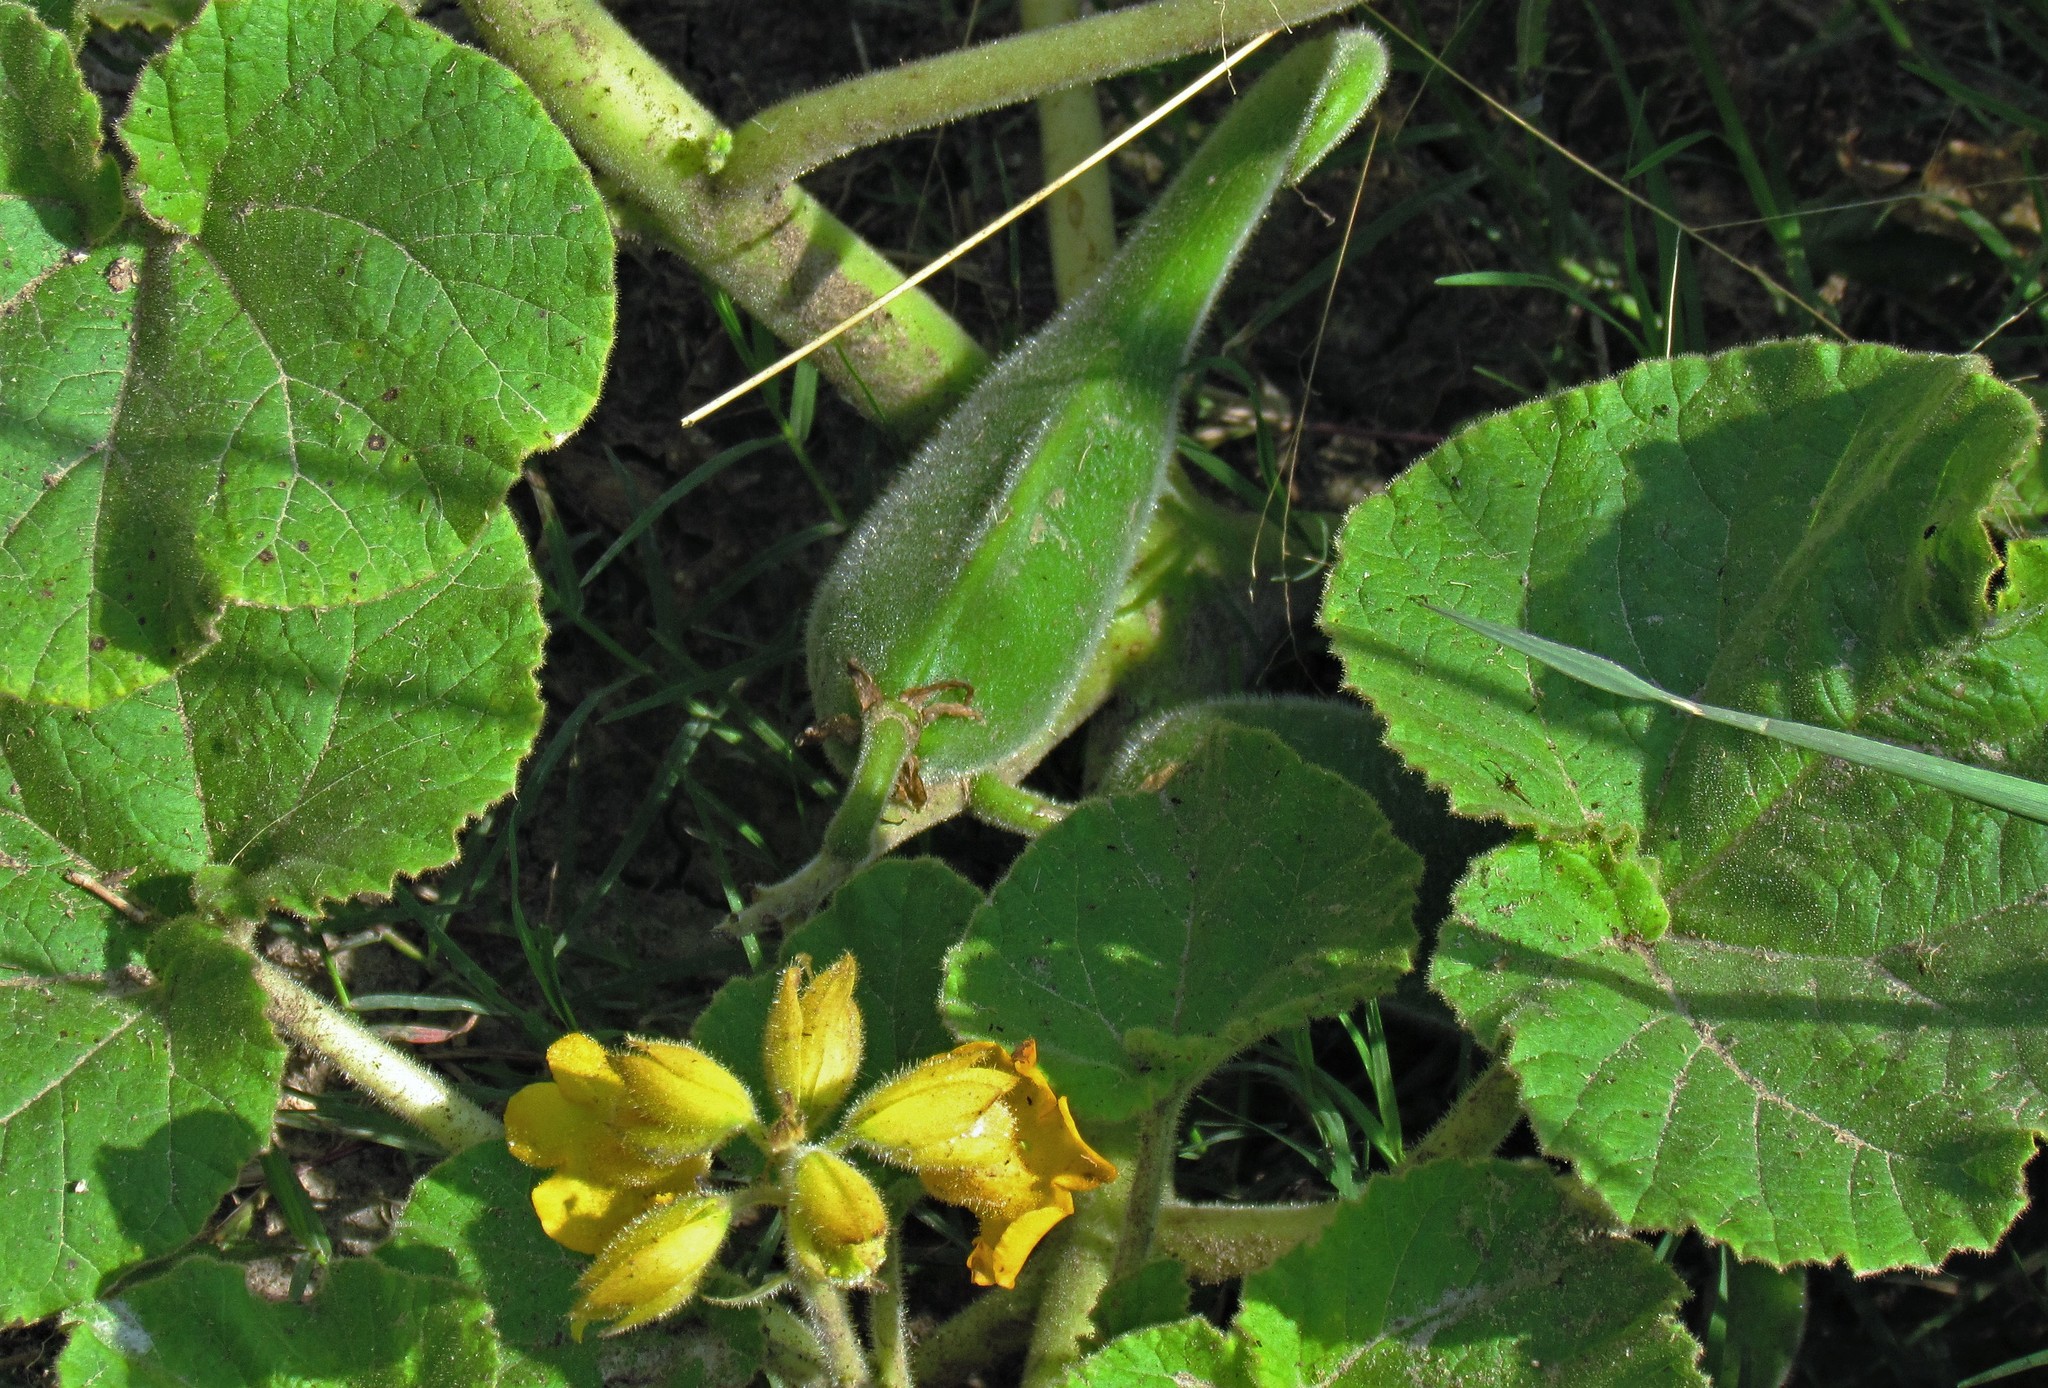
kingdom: Plantae
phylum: Tracheophyta
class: Magnoliopsida
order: Lamiales
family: Martyniaceae
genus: Ibicella
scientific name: Ibicella lutea
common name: Yellow unicorn-plant
